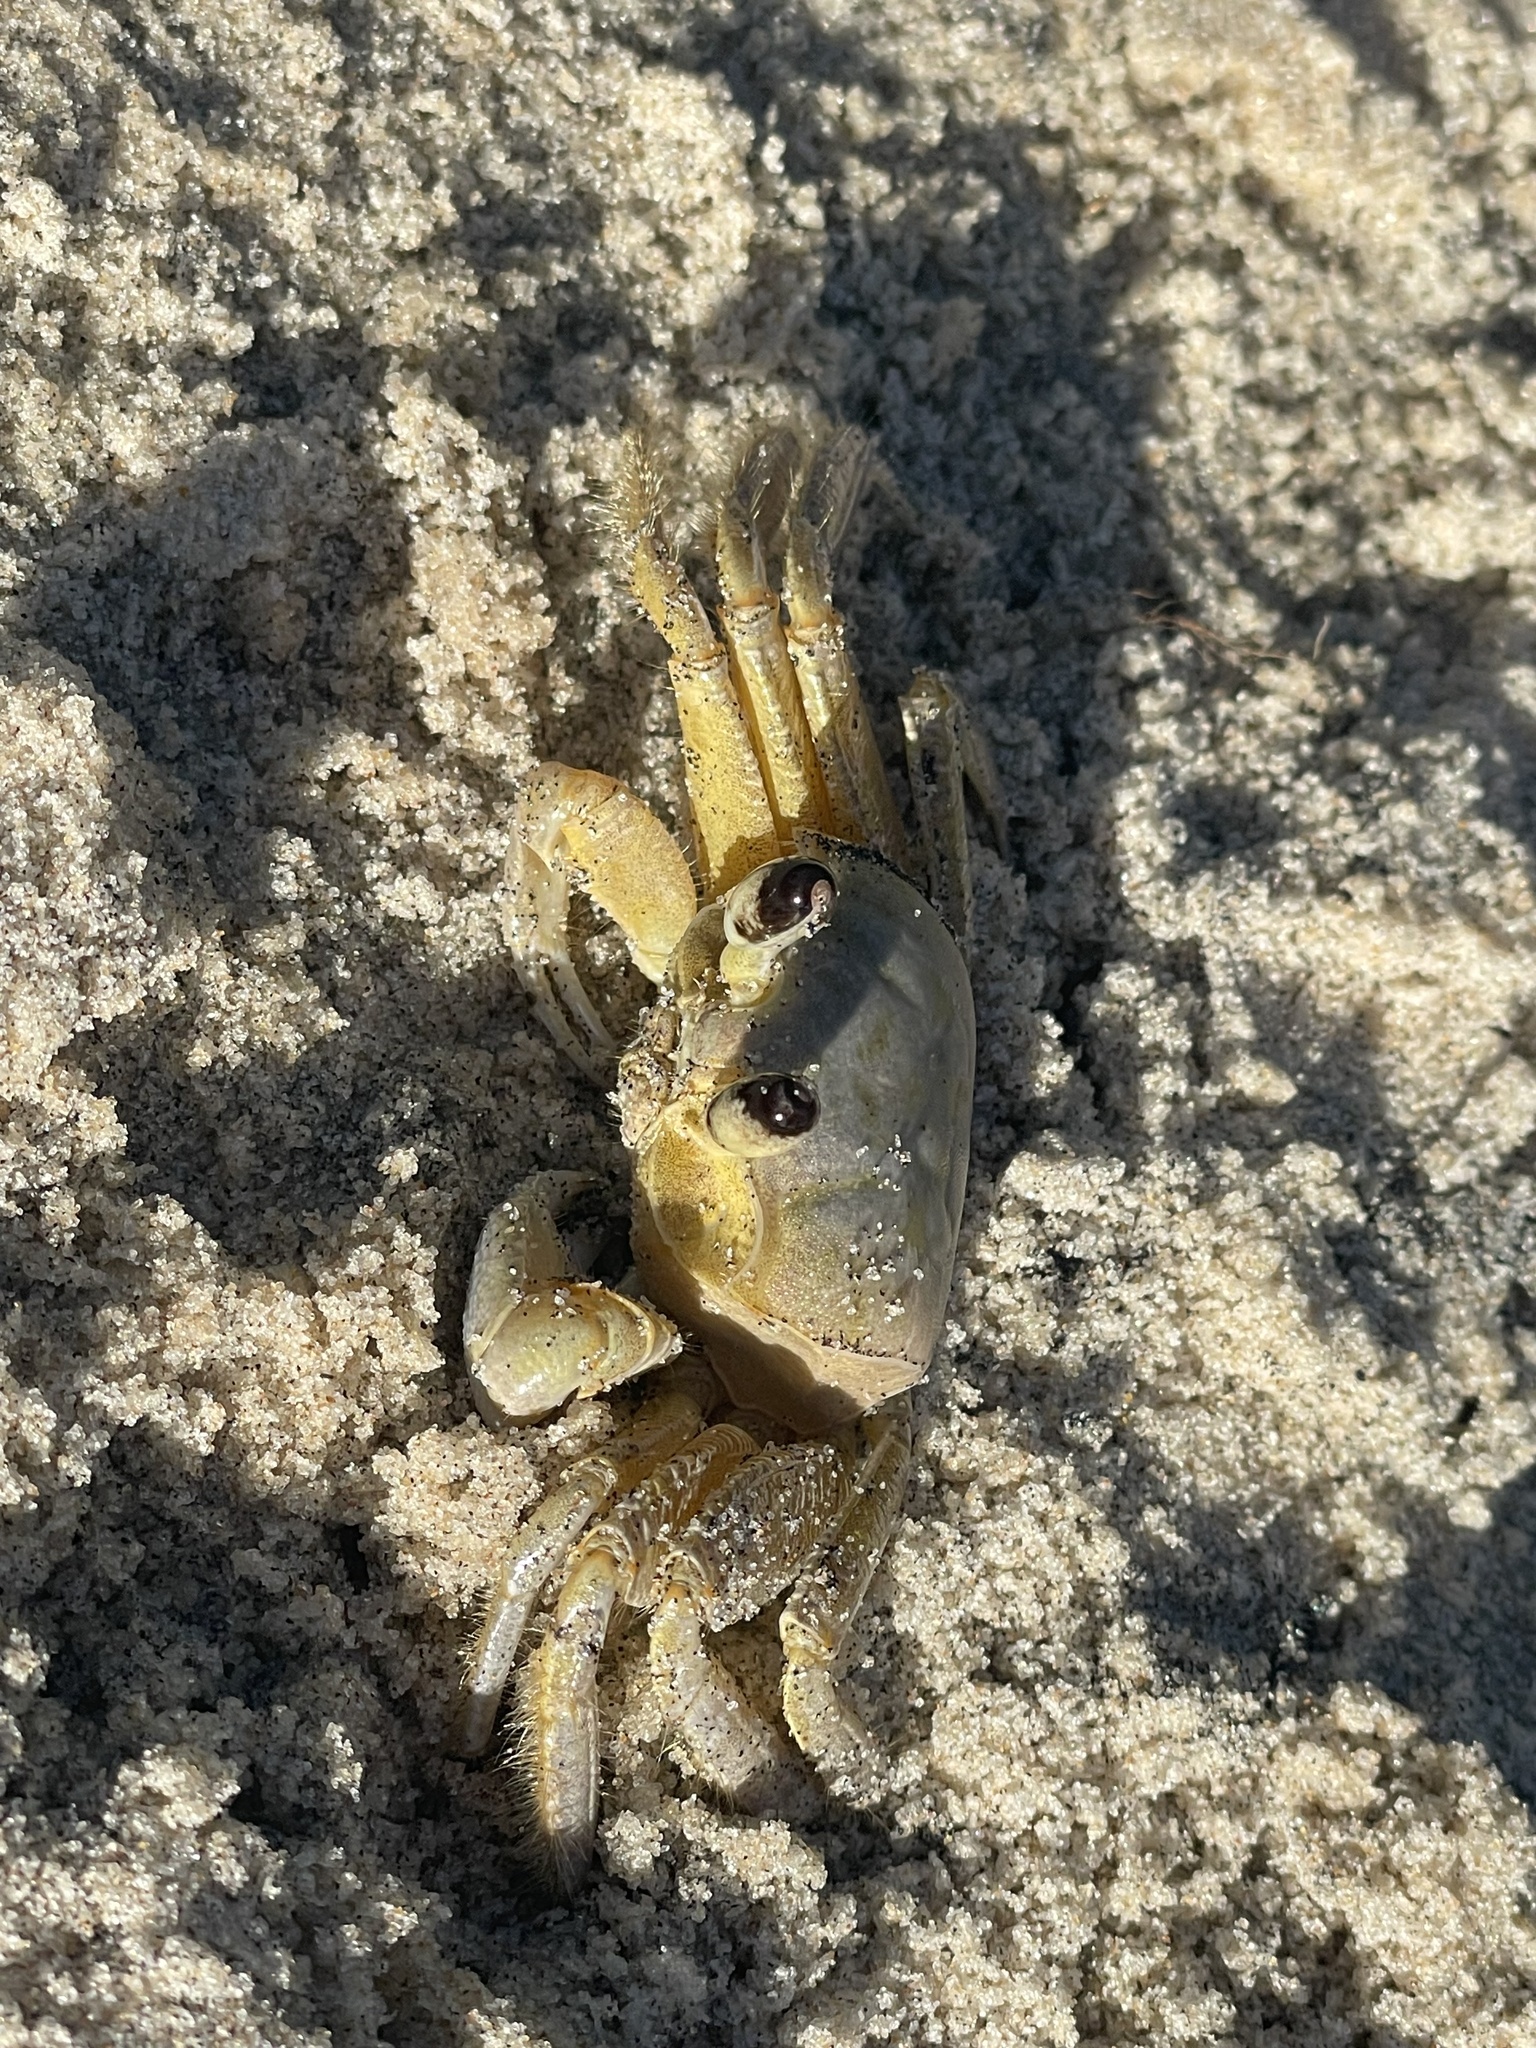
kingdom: Animalia
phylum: Arthropoda
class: Malacostraca
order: Decapoda
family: Ocypodidae
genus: Ocypode
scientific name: Ocypode quadrata
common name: Ghost crab
